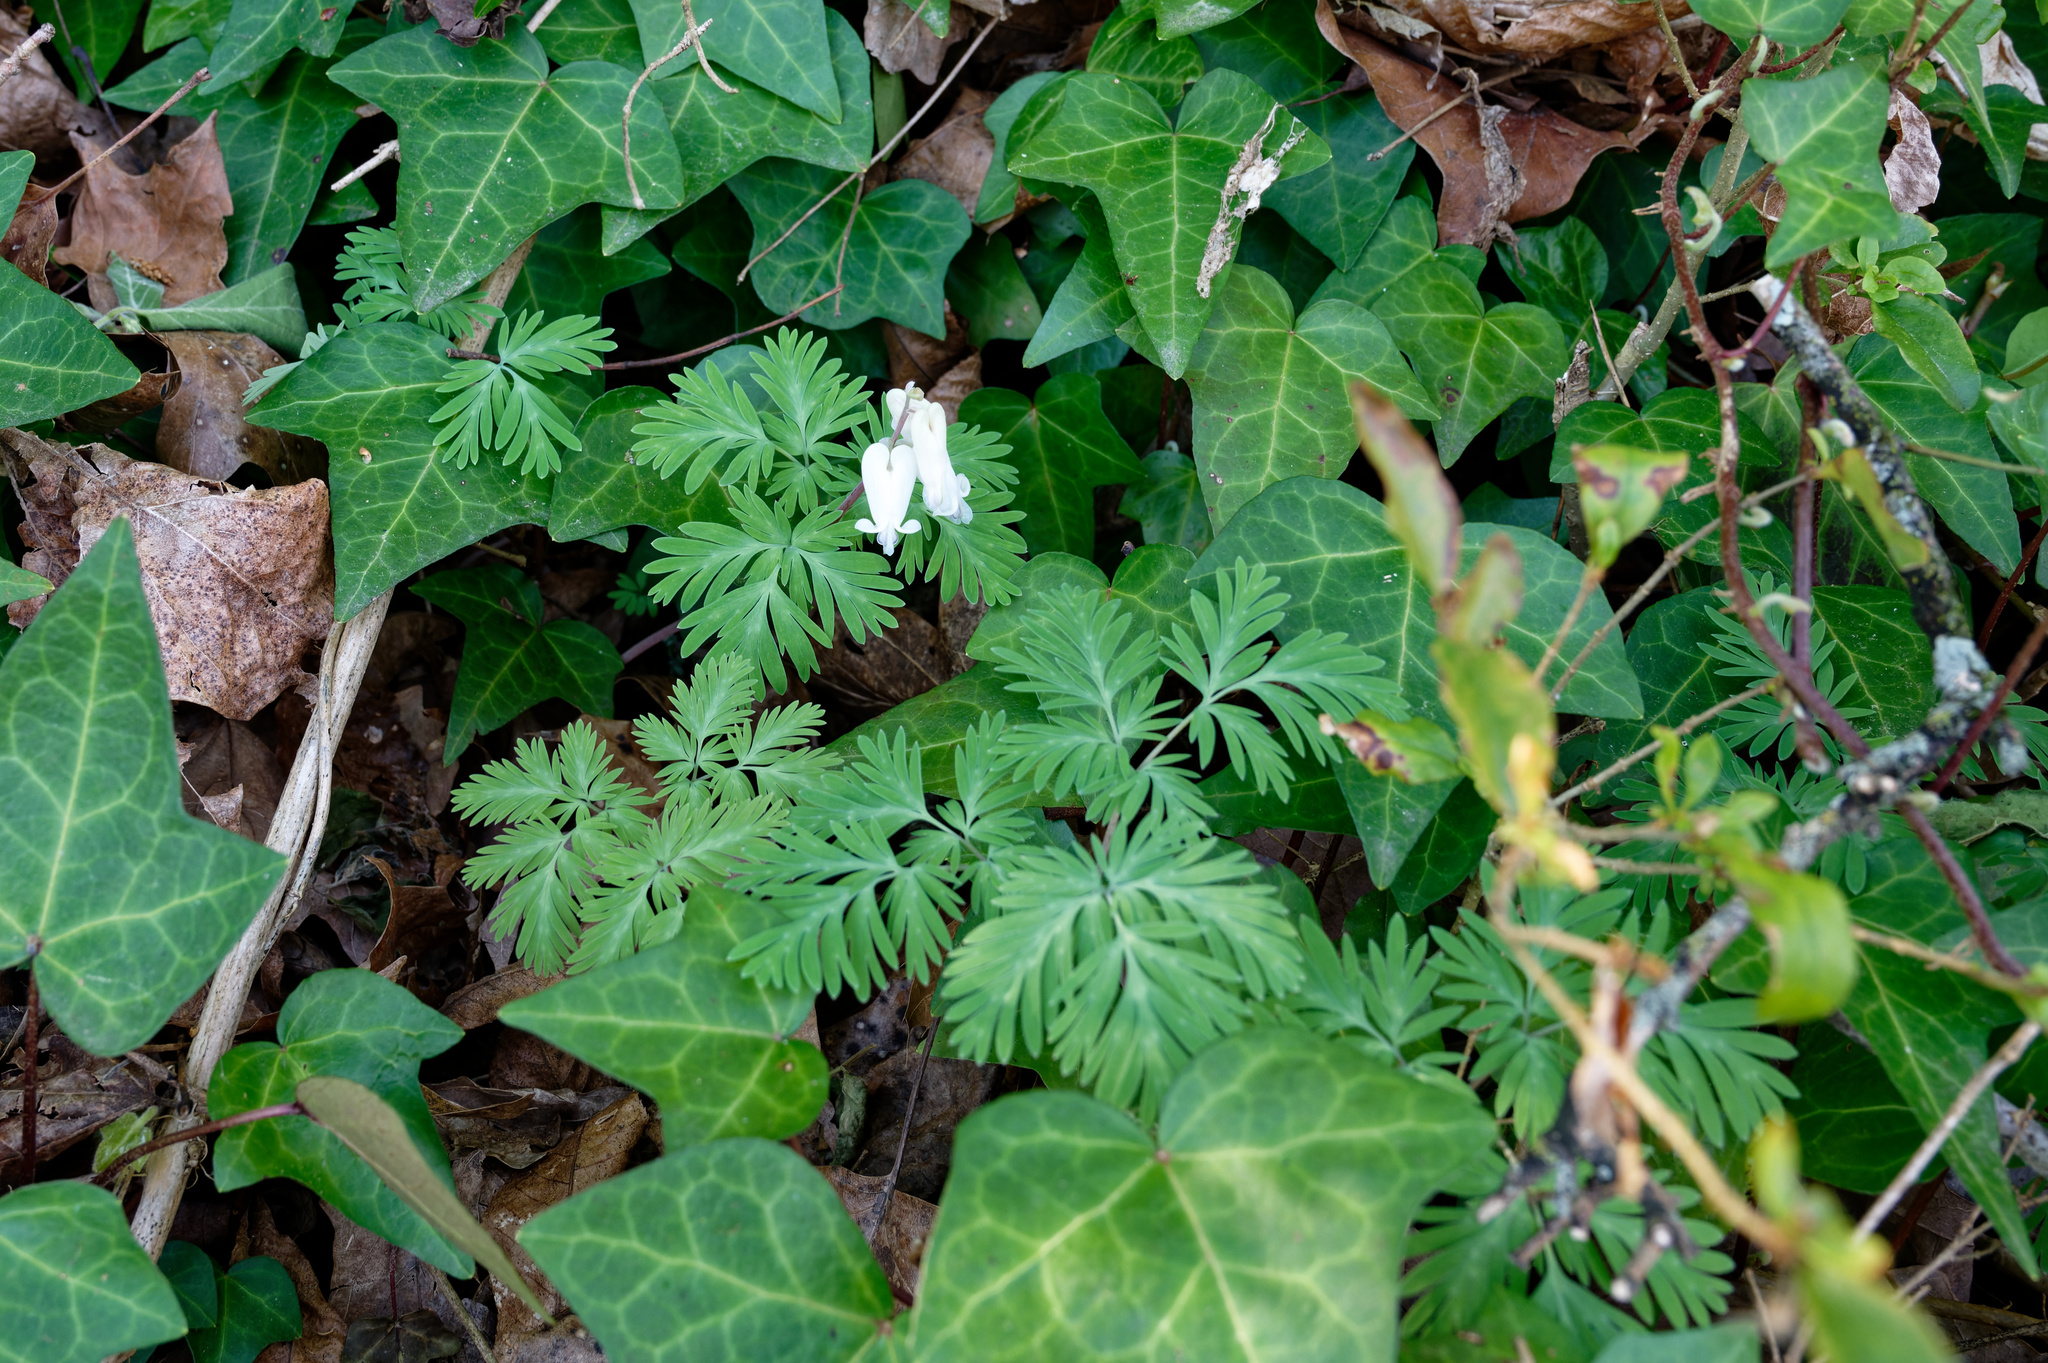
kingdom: Plantae
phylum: Tracheophyta
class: Magnoliopsida
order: Ranunculales
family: Papaveraceae
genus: Dicentra
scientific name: Dicentra canadensis
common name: Squirrel-corn
